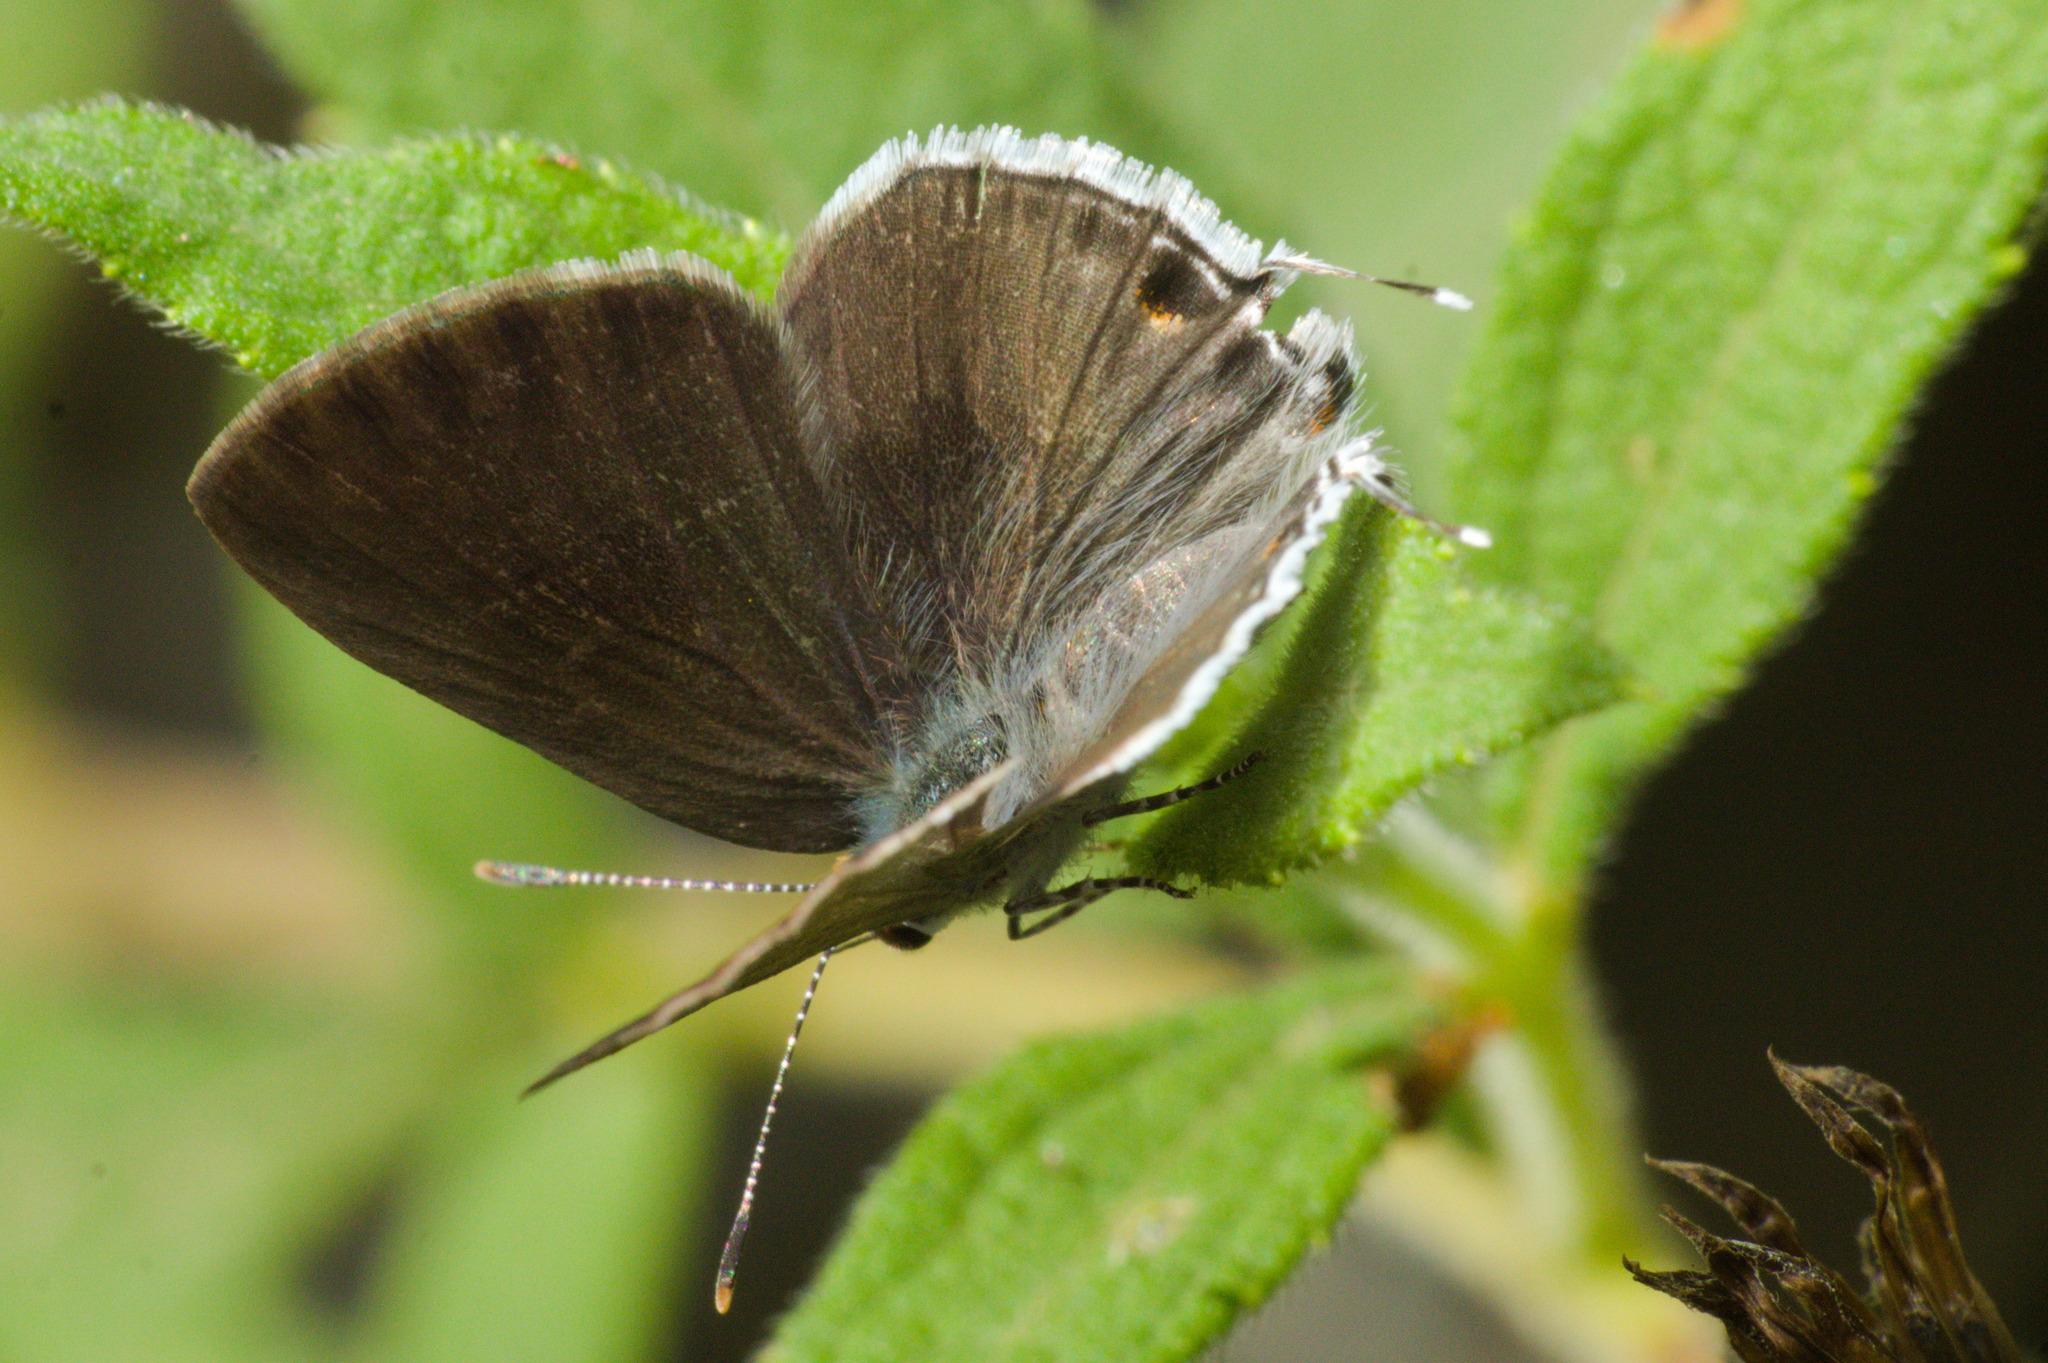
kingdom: Animalia
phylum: Arthropoda
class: Insecta
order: Lepidoptera
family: Lycaenidae
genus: Strymon
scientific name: Strymon mulucha
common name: Mottled scrub-hairstreak
